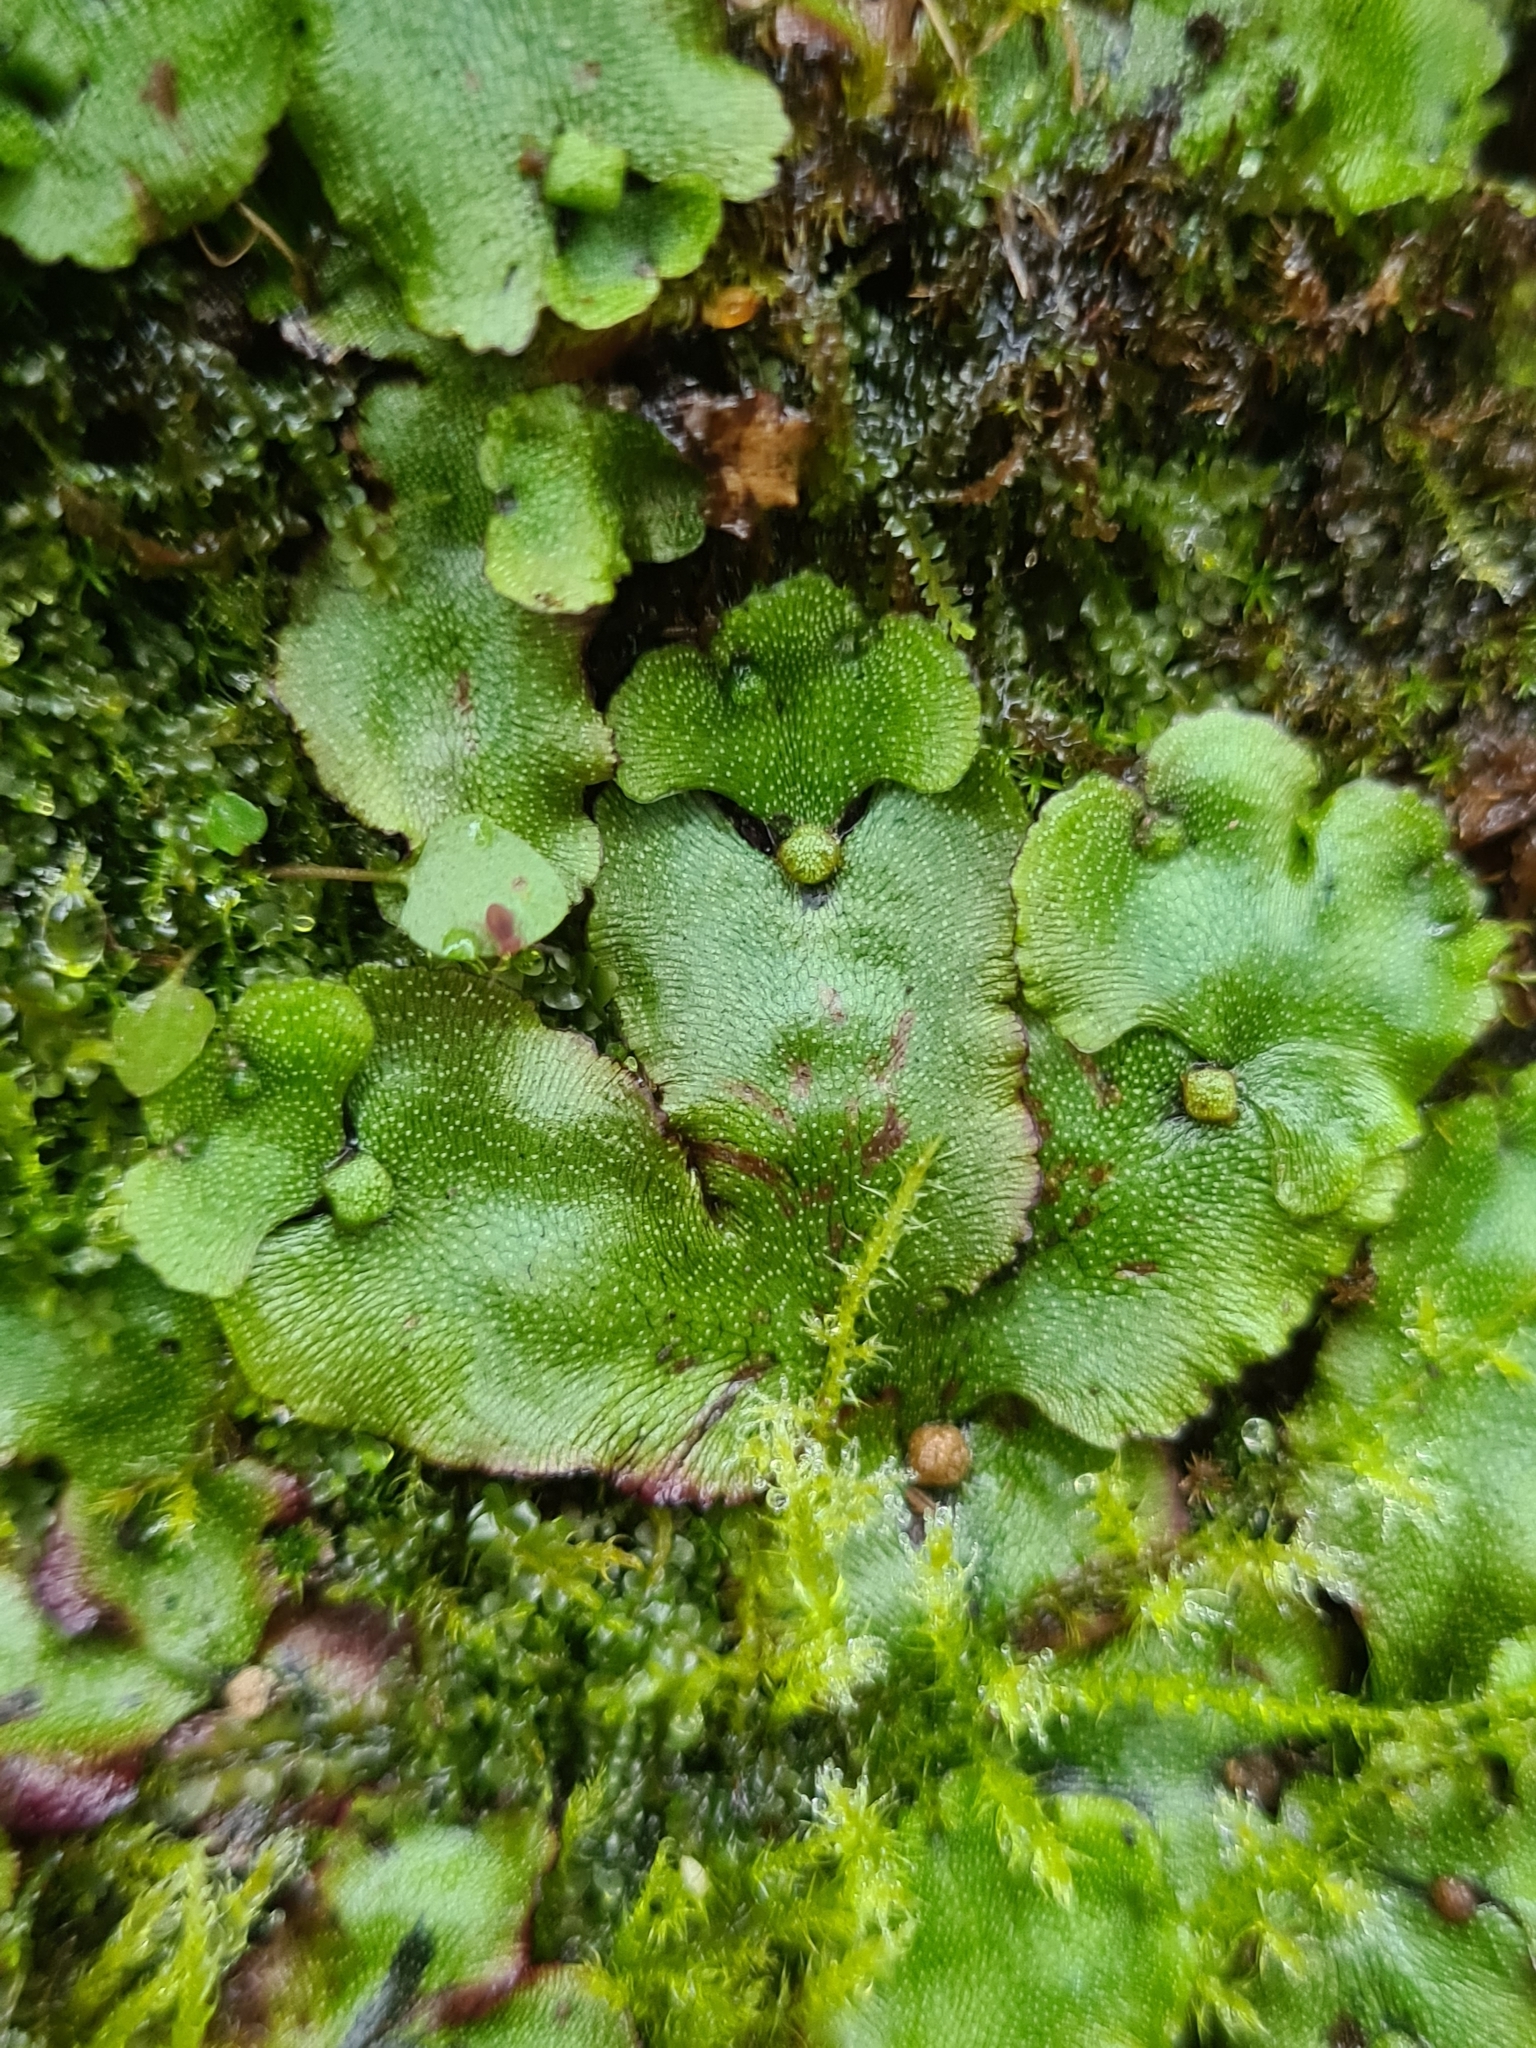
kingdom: Plantae
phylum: Marchantiophyta
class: Marchantiopsida
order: Marchantiales
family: Marchantiaceae
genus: Marchantia
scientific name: Marchantia quadrata
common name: Narrow mushroom-headed liverwort
